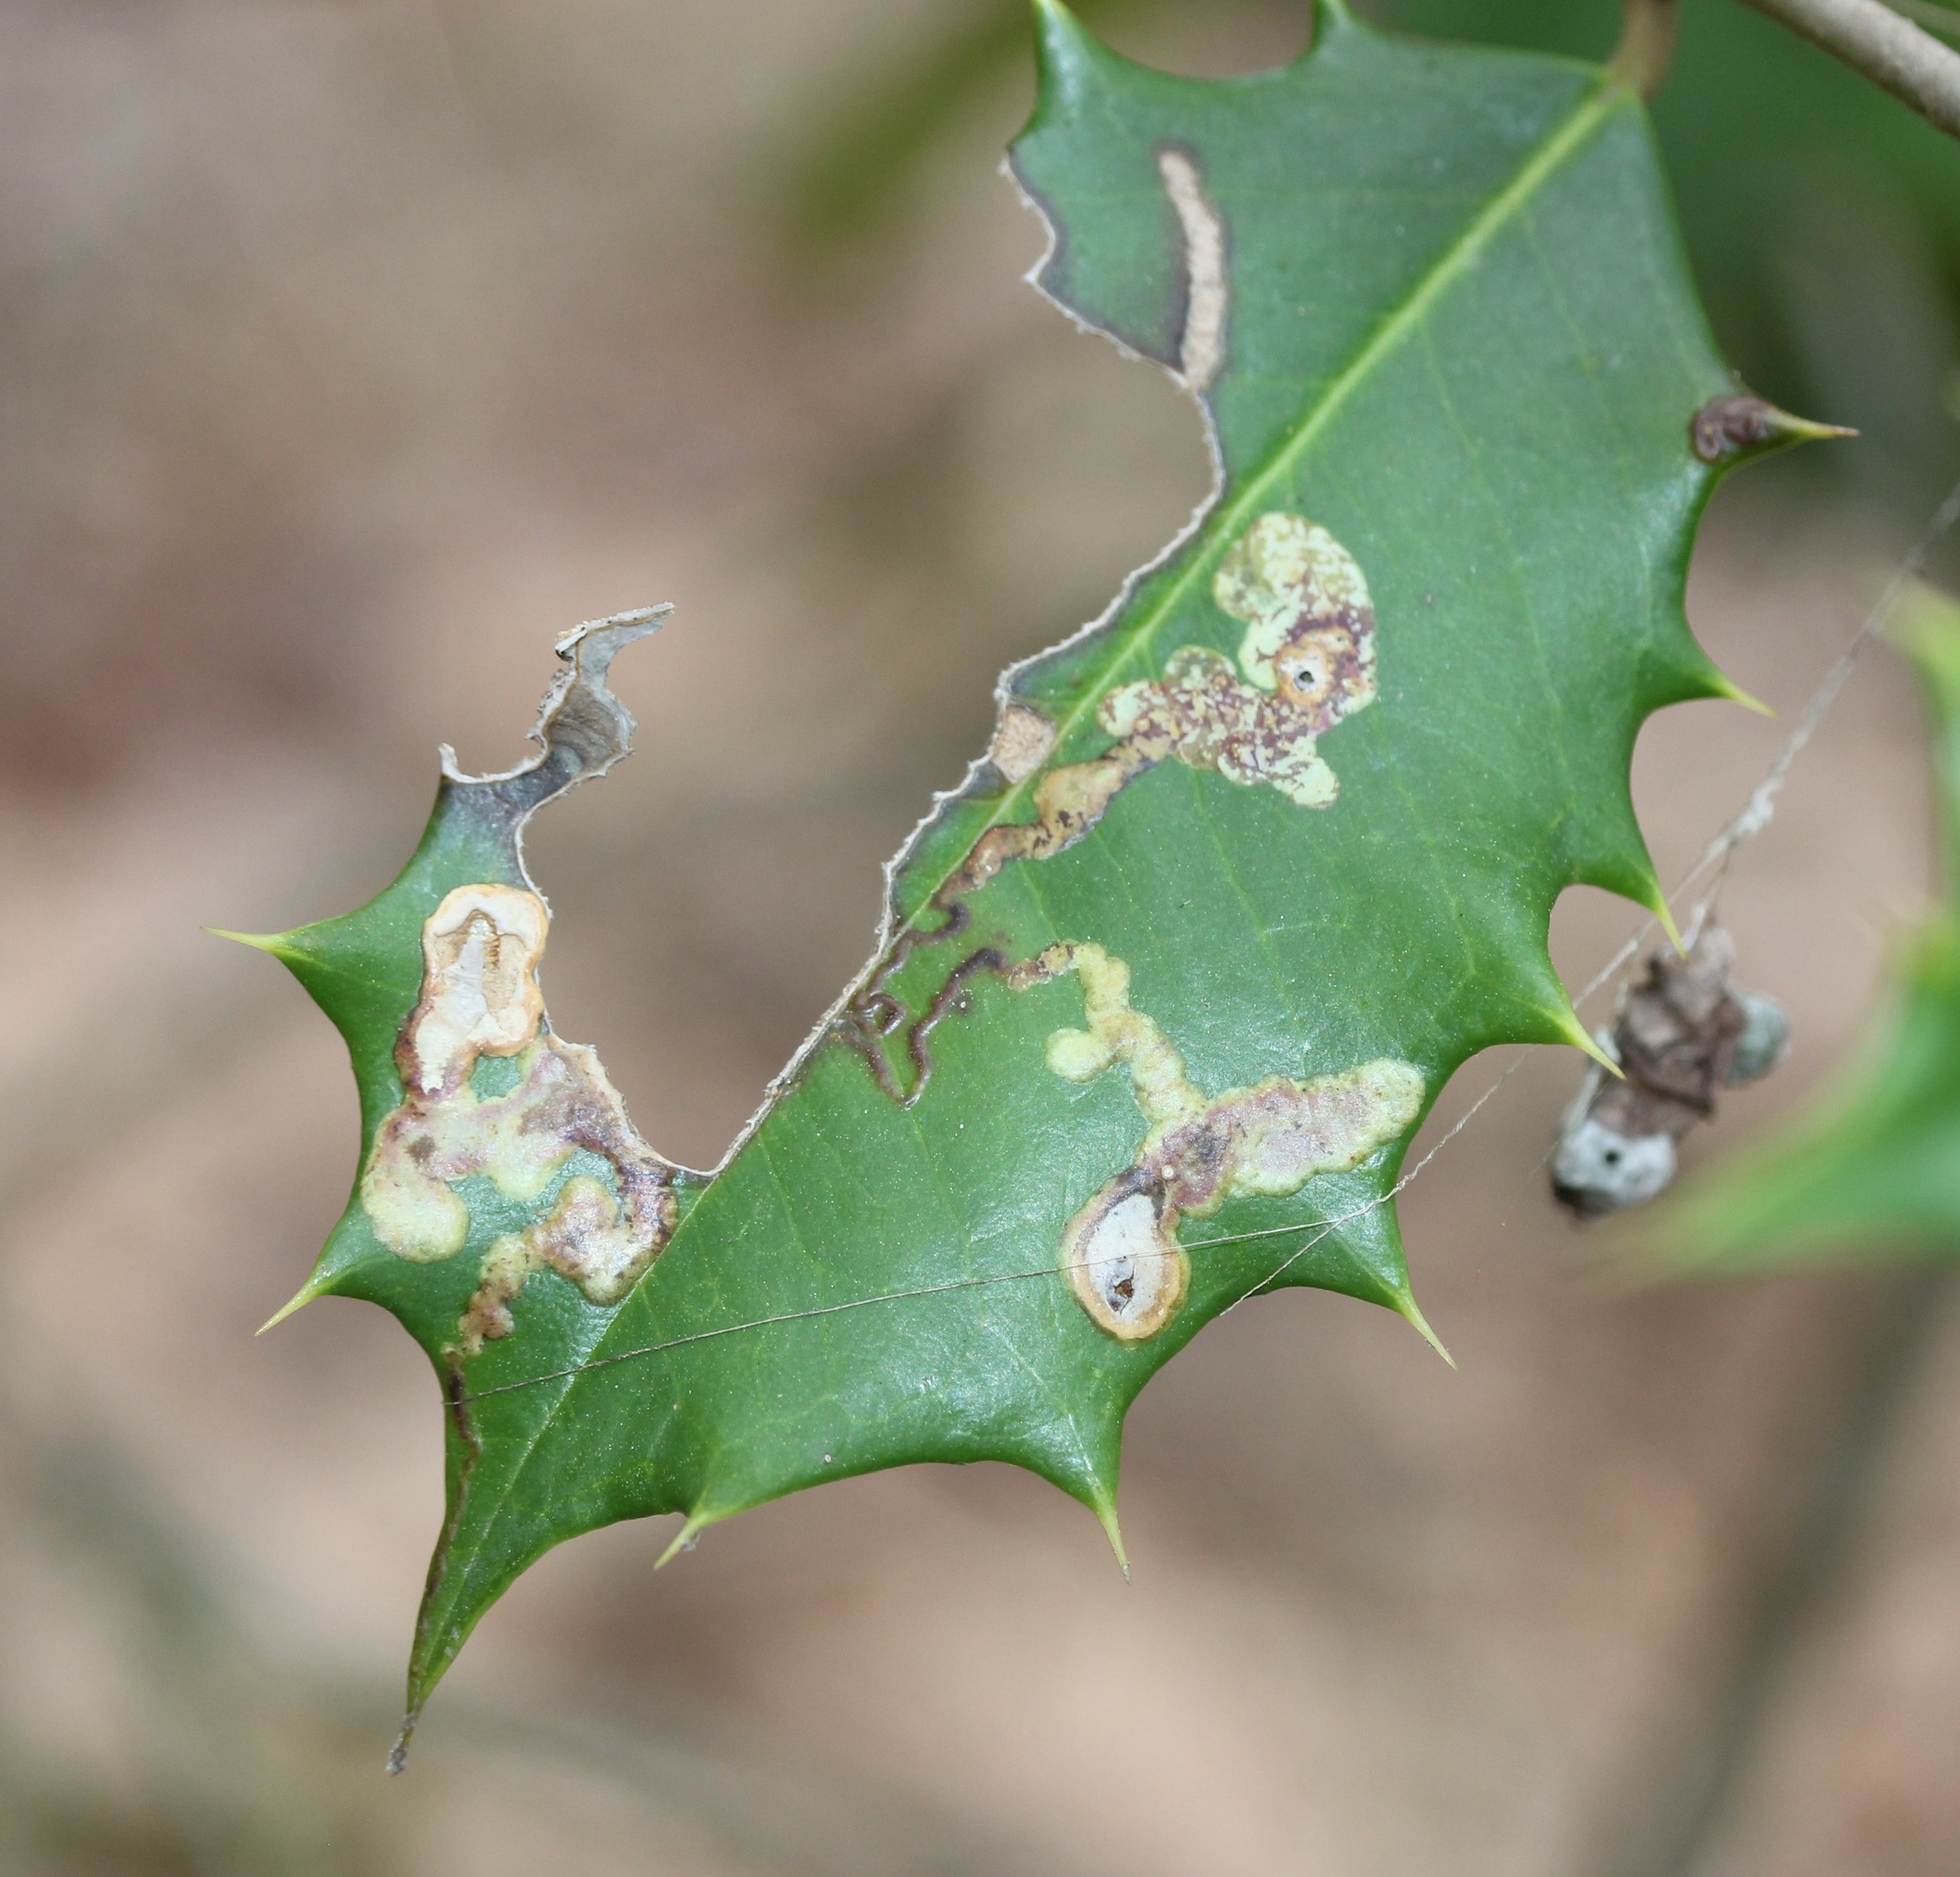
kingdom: Animalia
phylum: Arthropoda
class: Insecta
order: Diptera
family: Agromyzidae
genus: Phytomyza
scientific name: Phytomyza ilicicola
